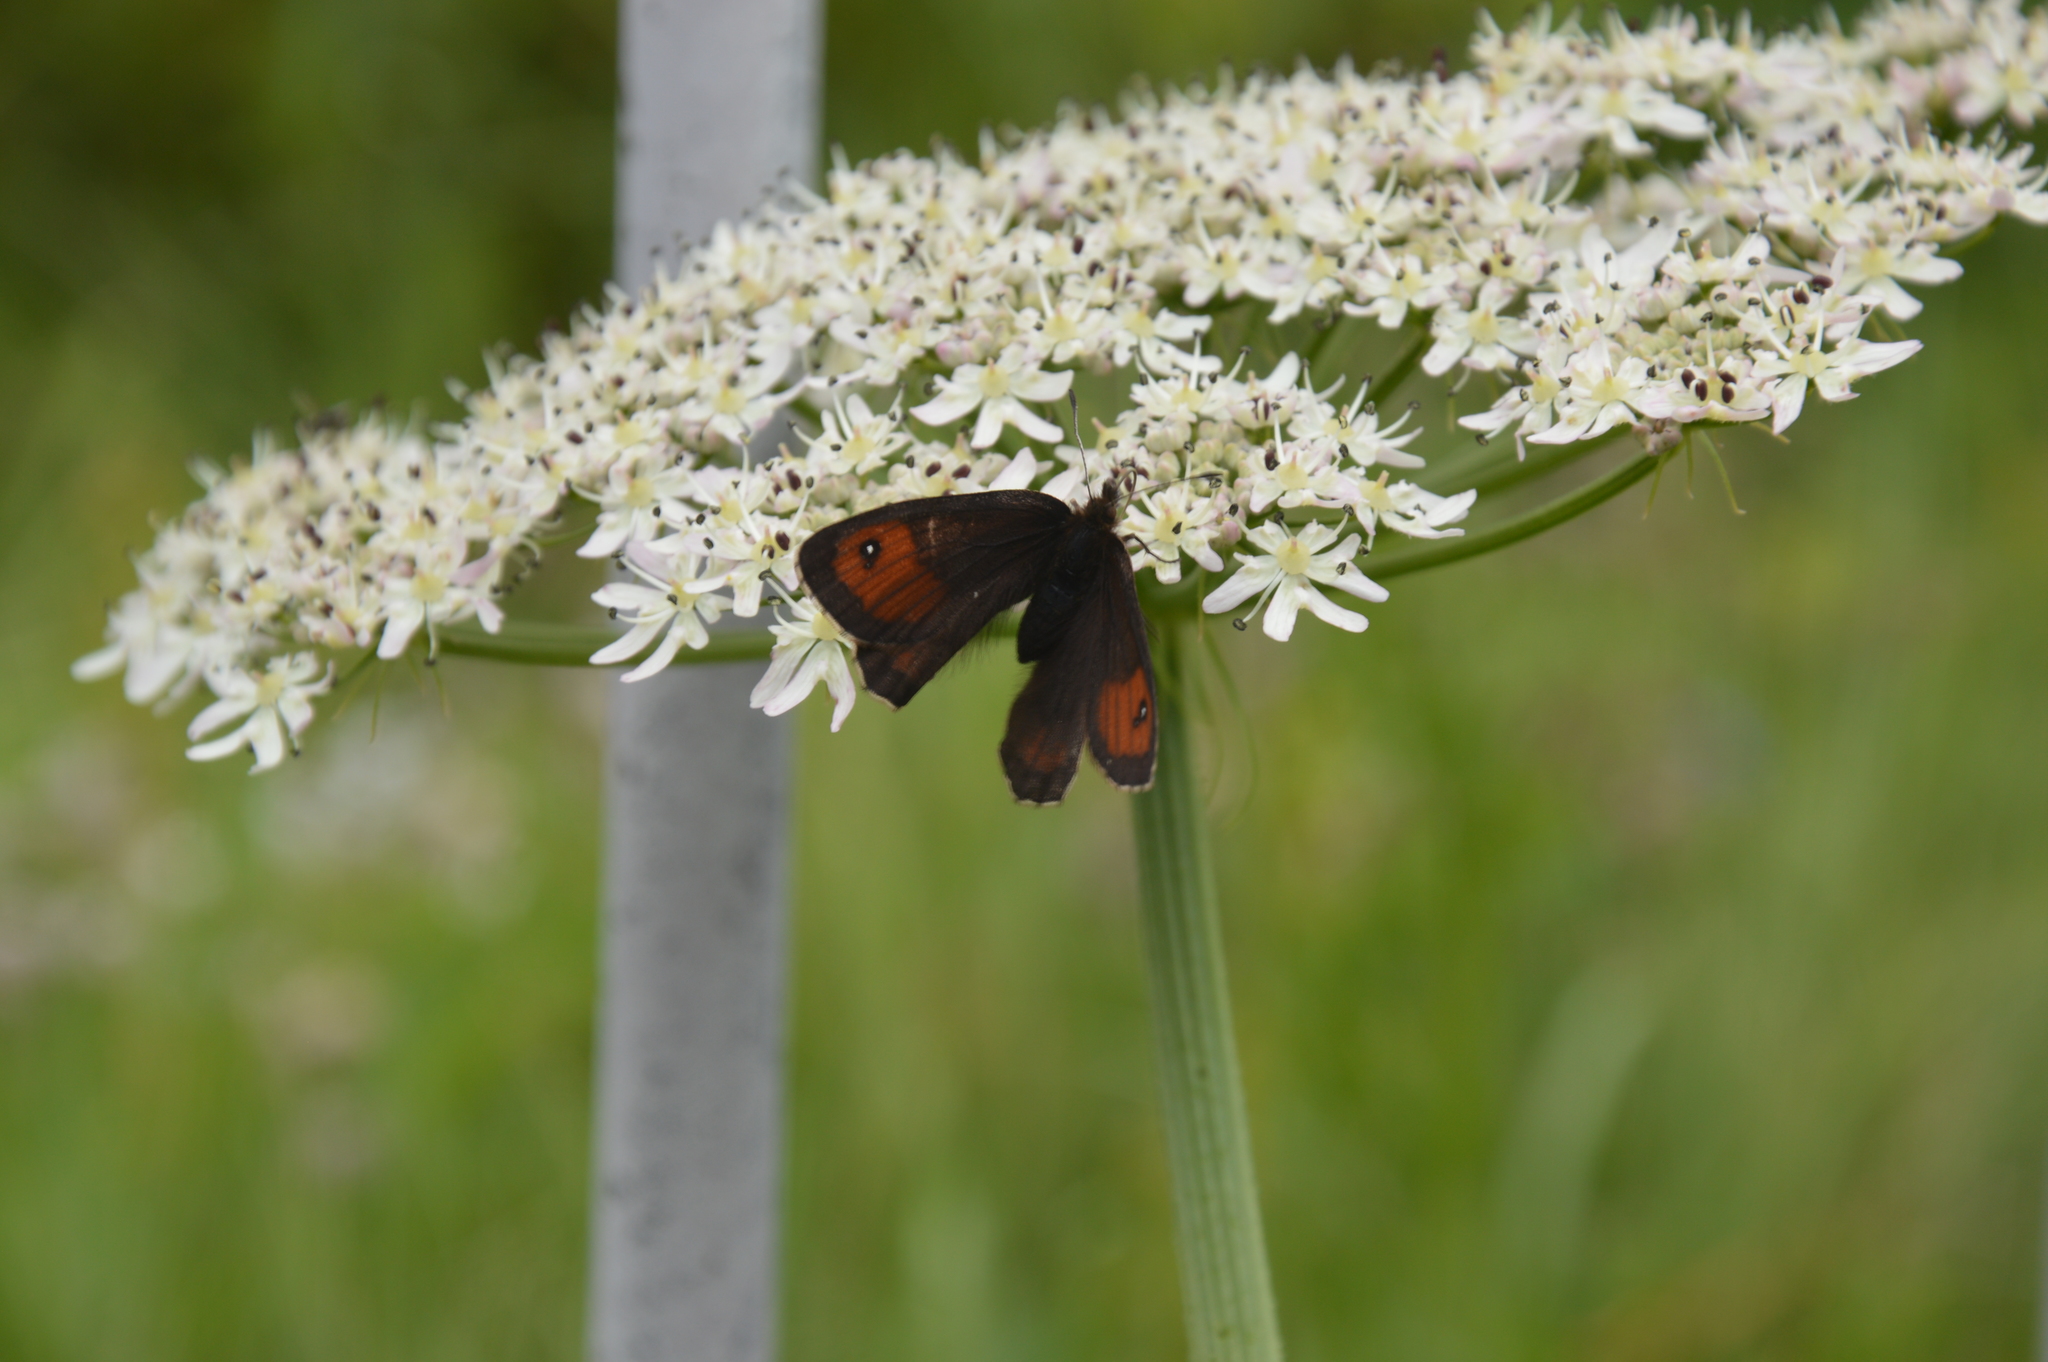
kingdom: Animalia
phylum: Arthropoda
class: Insecta
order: Lepidoptera
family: Nymphalidae
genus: Erebia
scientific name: Erebia pronoe
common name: Water ringlet
